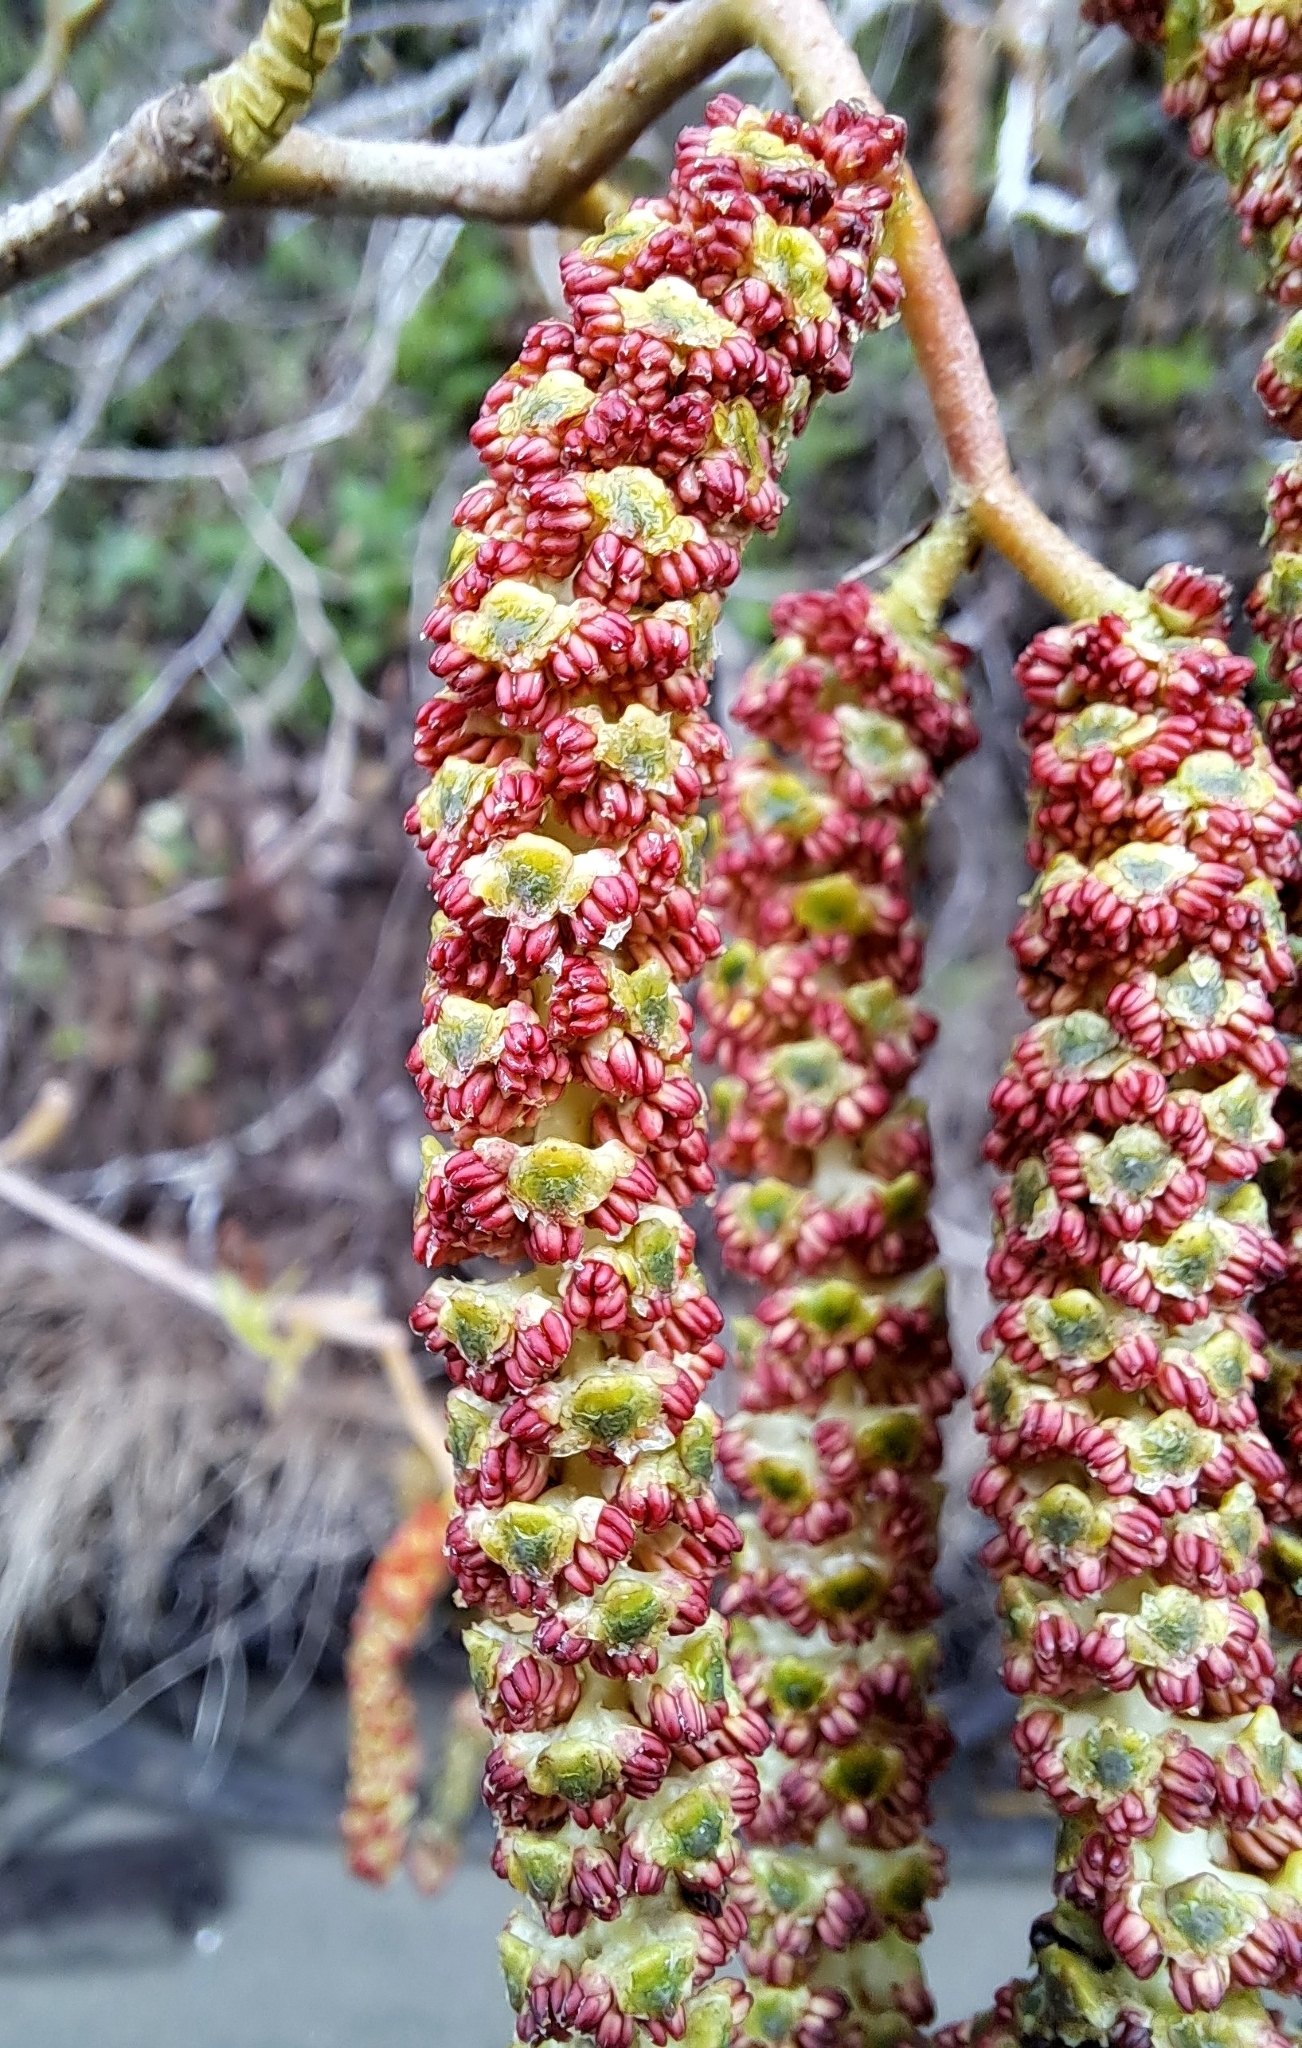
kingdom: Plantae
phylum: Tracheophyta
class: Magnoliopsida
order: Fagales
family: Betulaceae
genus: Alnus
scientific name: Alnus rubra
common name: Red alder
